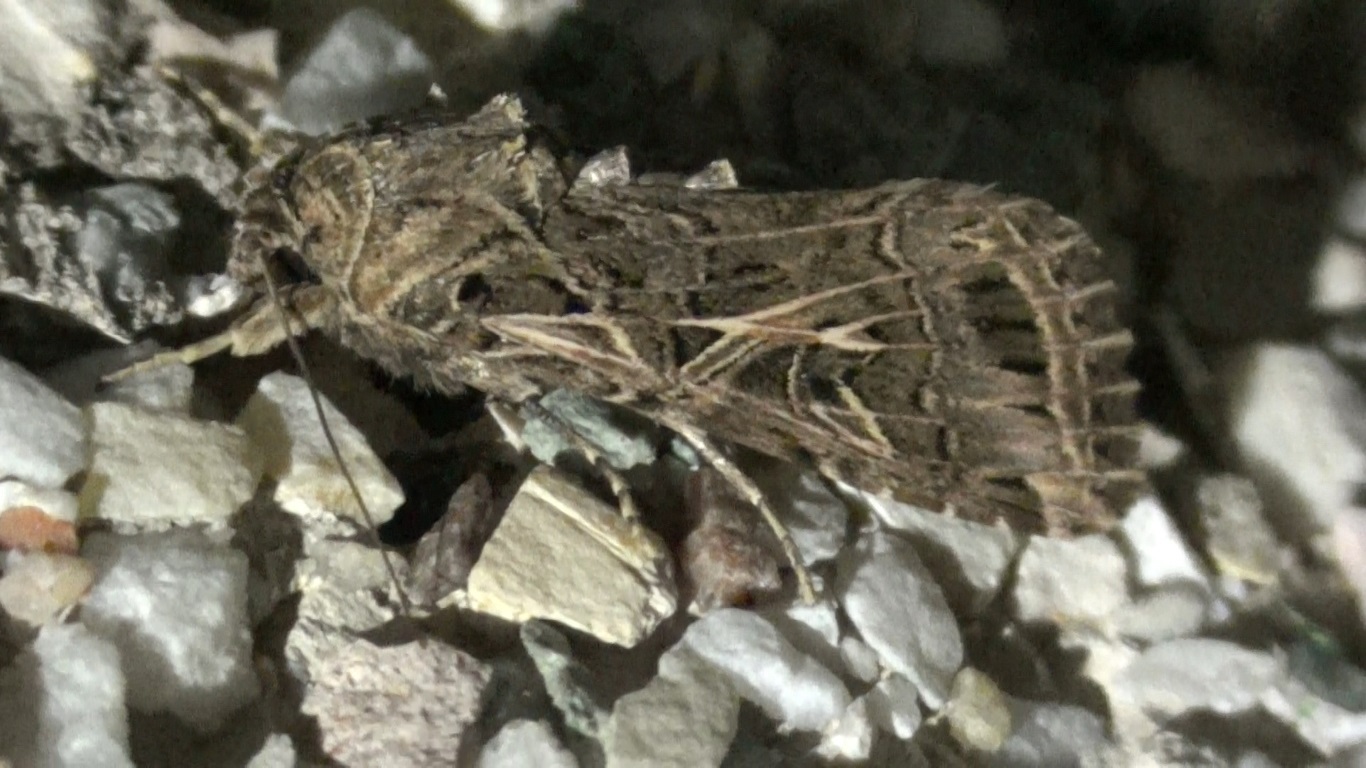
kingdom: Animalia
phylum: Arthropoda
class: Insecta
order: Lepidoptera
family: Noctuidae
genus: Spodoptera
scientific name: Spodoptera littoralis
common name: Egyptian cotton leafworm
